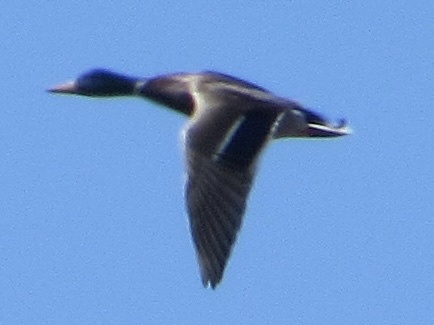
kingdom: Animalia
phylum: Chordata
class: Aves
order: Anseriformes
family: Anatidae
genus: Anas
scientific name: Anas platyrhynchos
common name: Mallard
